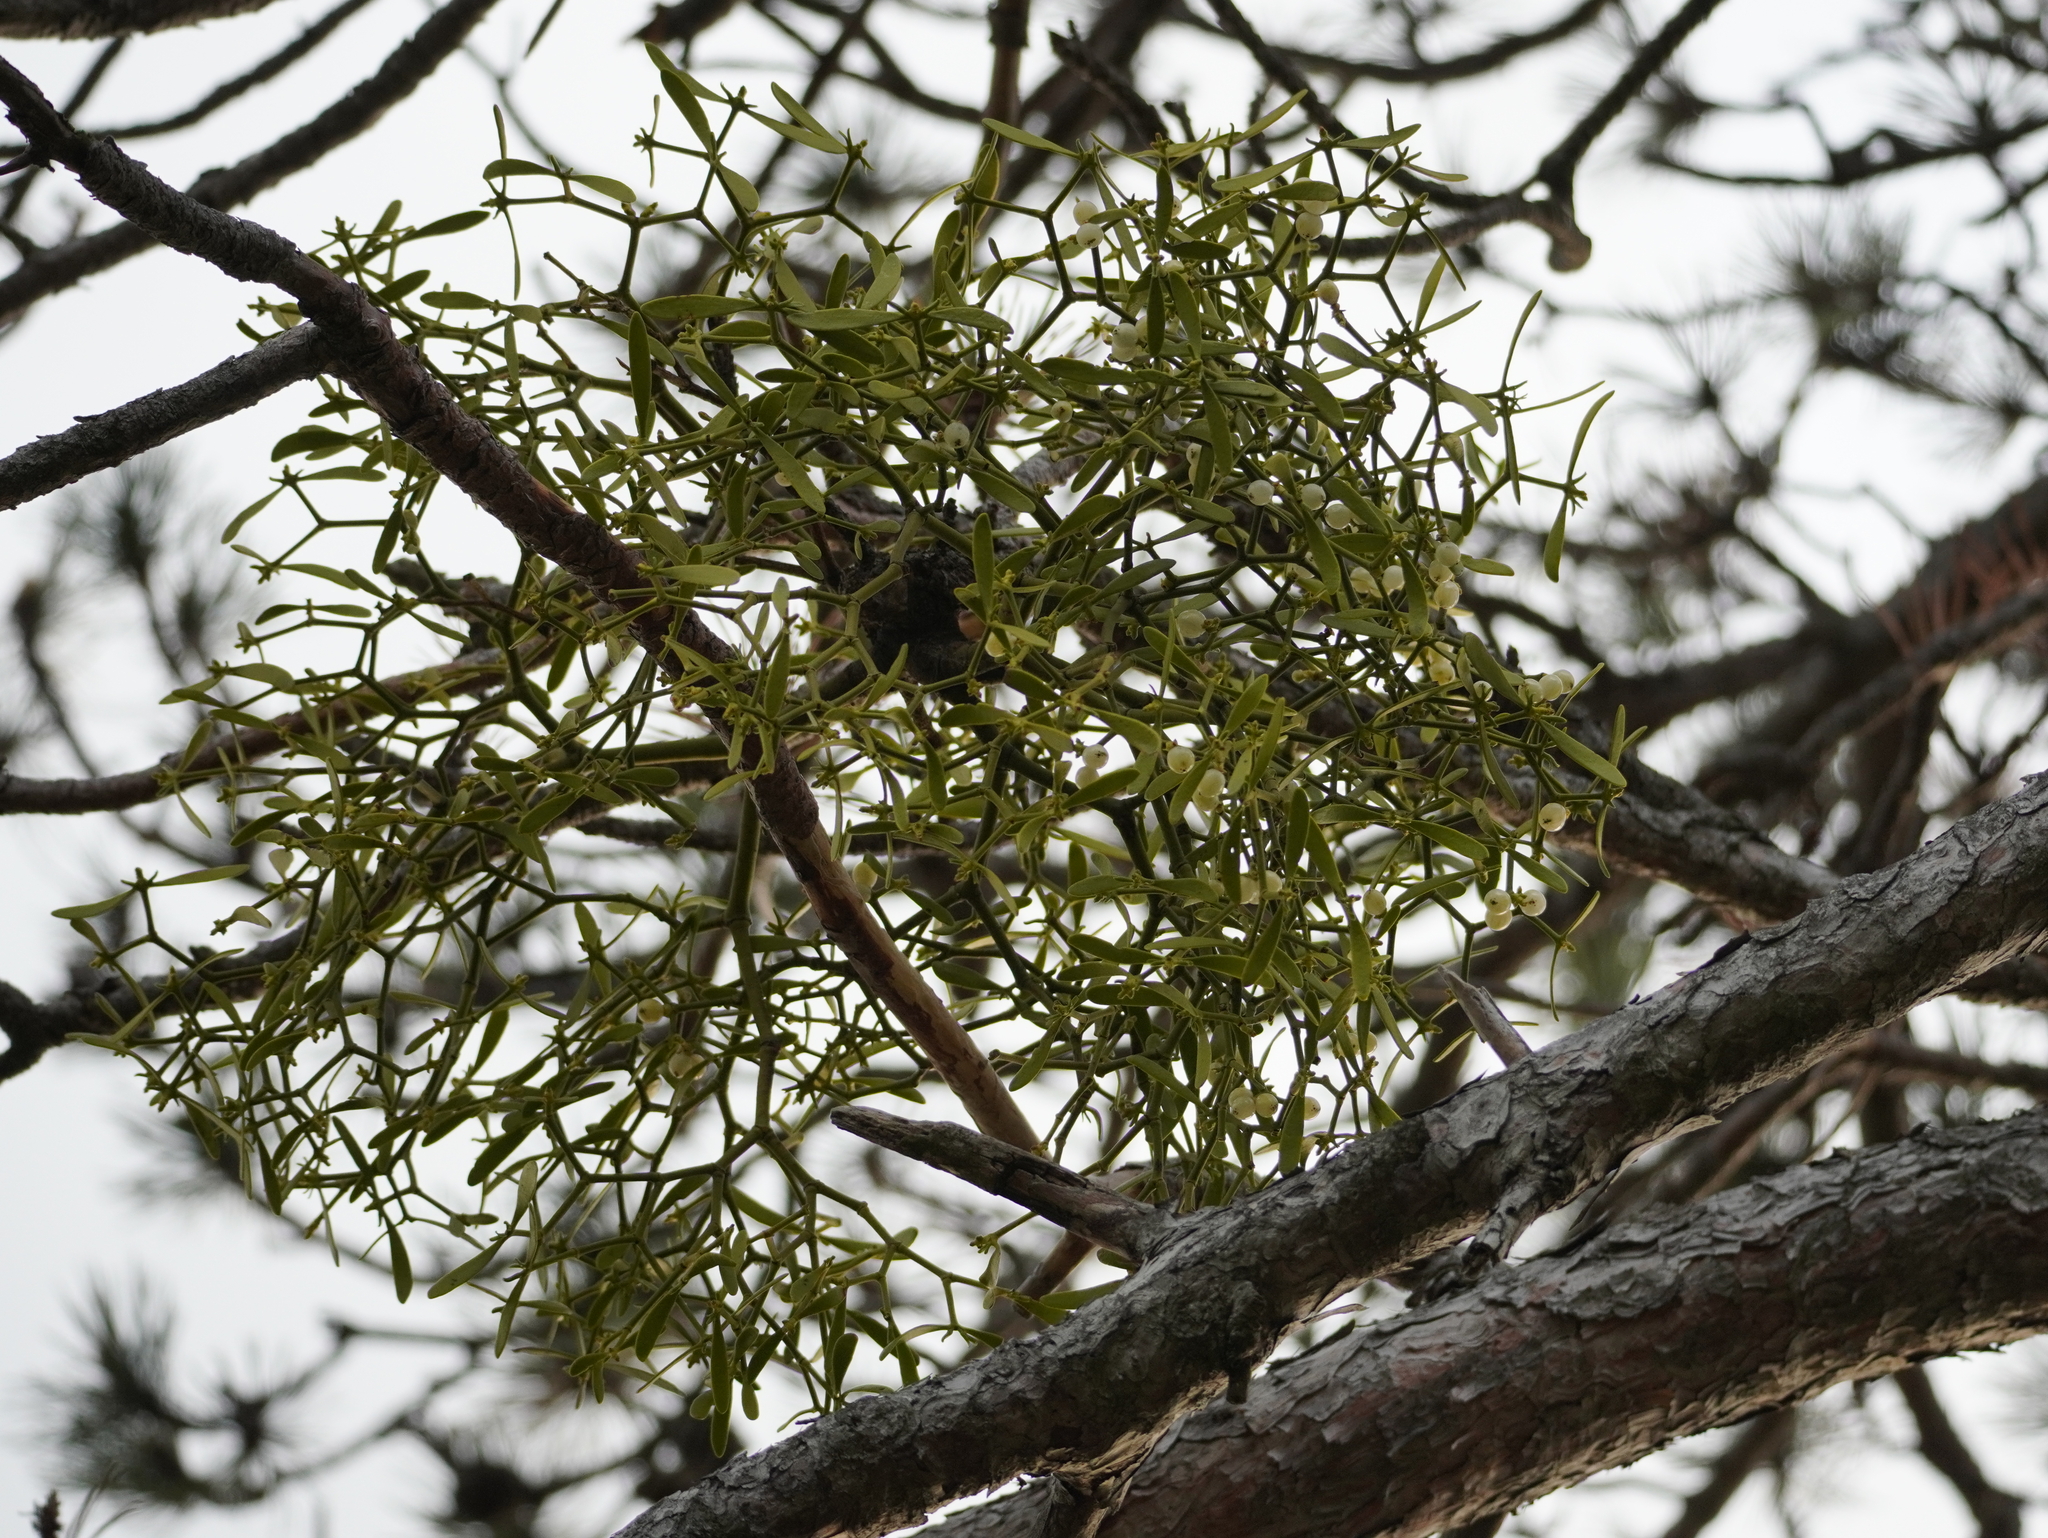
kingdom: Plantae
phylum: Tracheophyta
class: Magnoliopsida
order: Santalales
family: Viscaceae
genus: Viscum
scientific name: Viscum laxum
